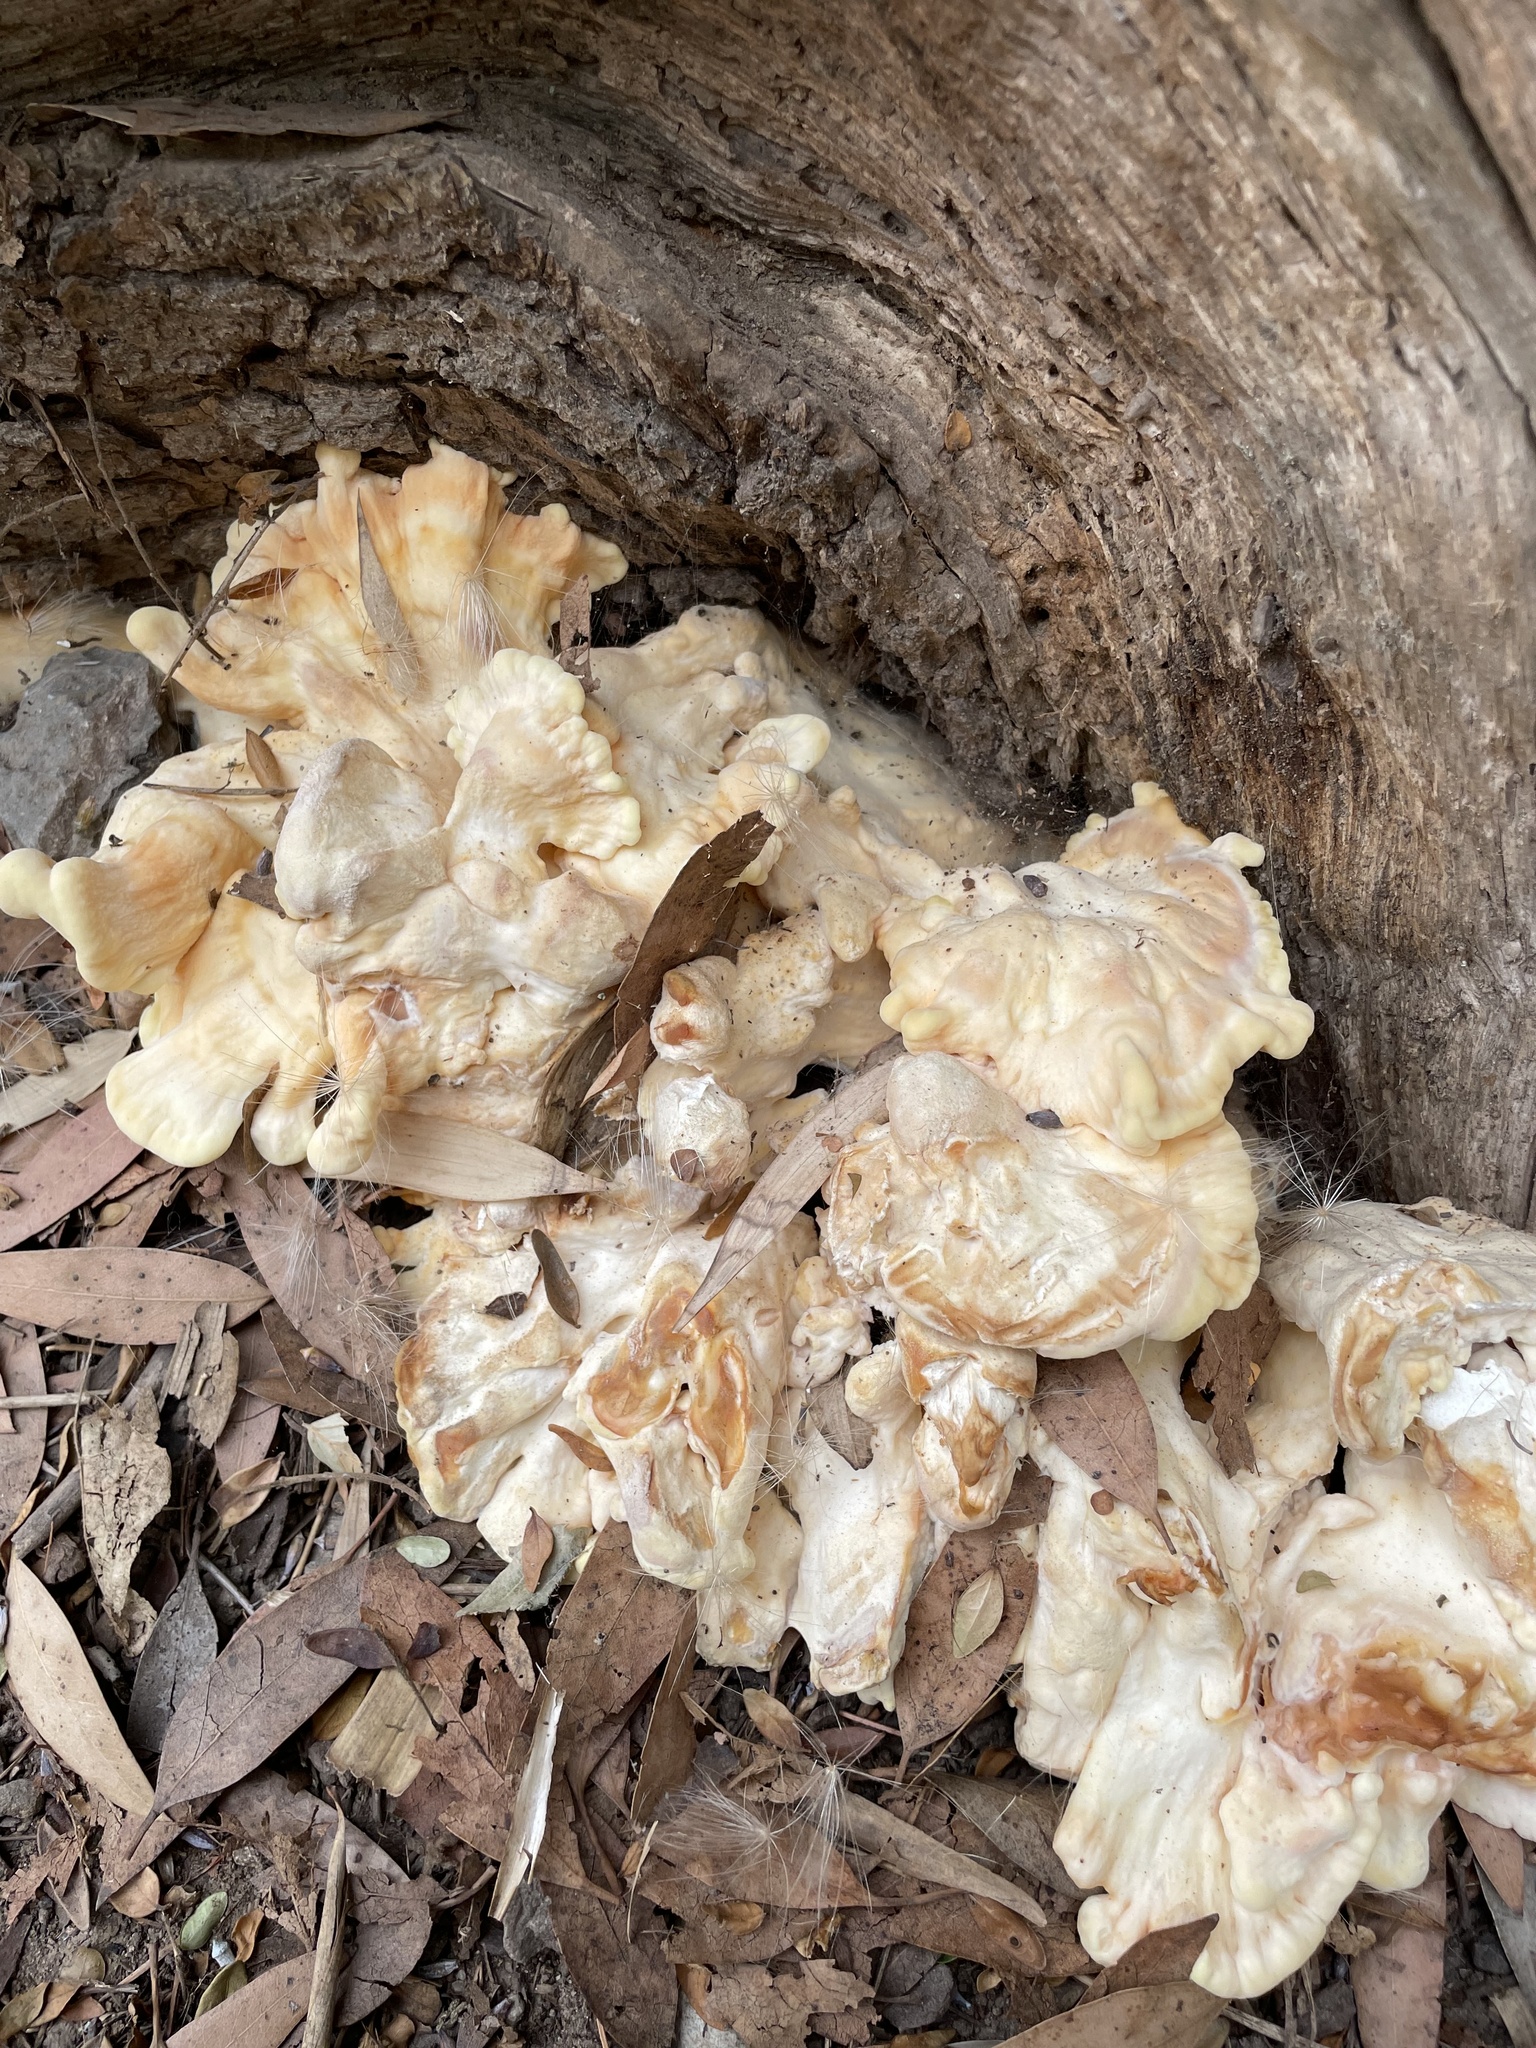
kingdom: Fungi
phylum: Basidiomycota
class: Agaricomycetes
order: Polyporales
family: Laetiporaceae
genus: Laetiporus
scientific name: Laetiporus sulphureus
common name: Chicken of the woods
